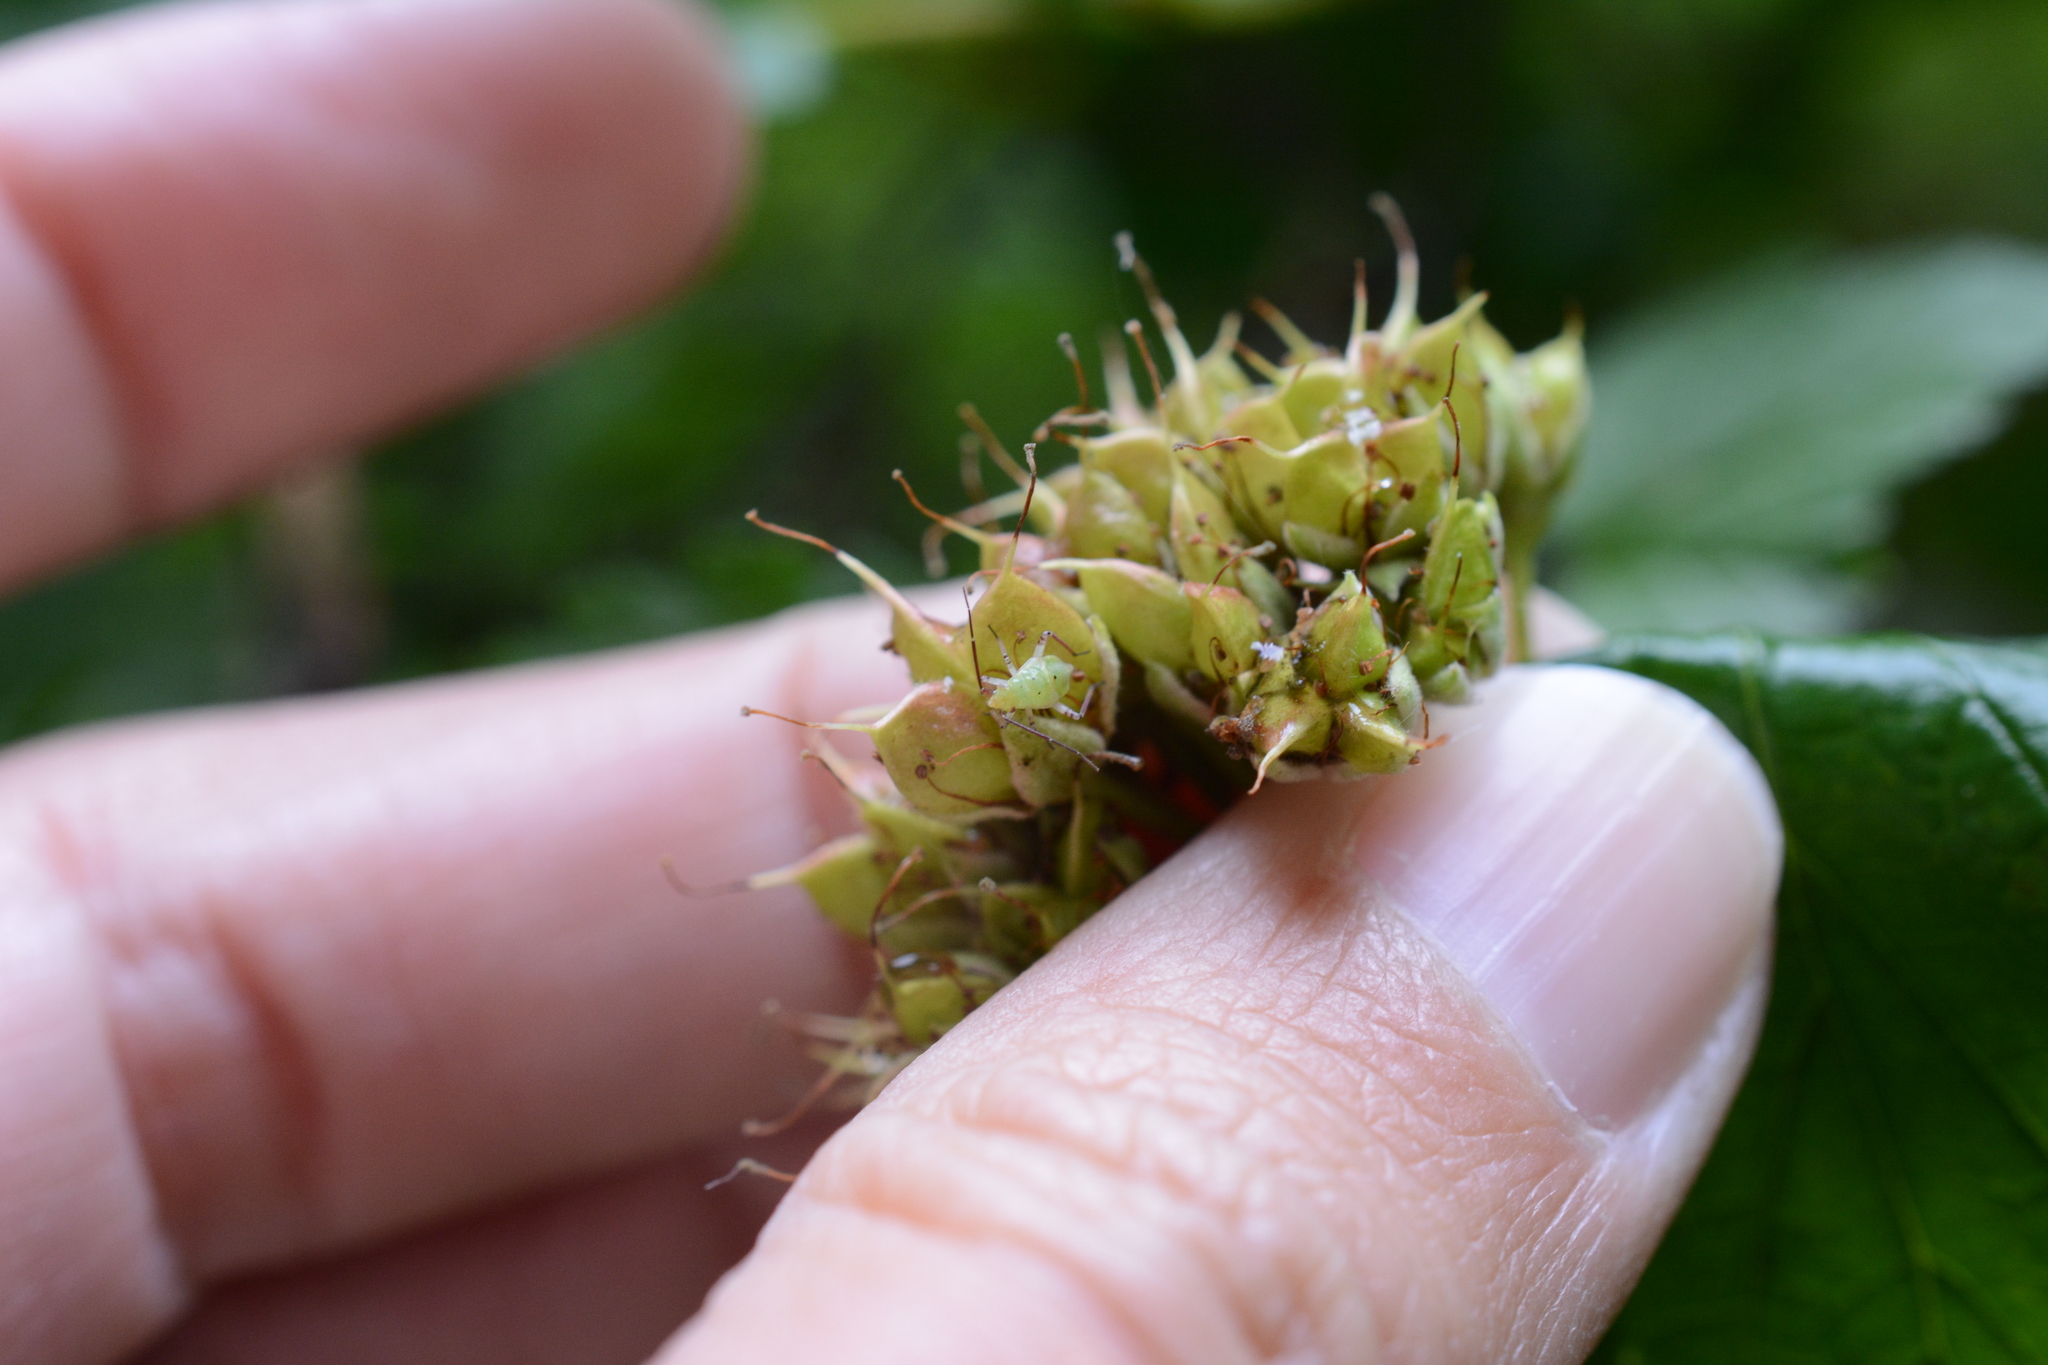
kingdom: Plantae
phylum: Tracheophyta
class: Magnoliopsida
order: Rosales
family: Rosaceae
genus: Physocarpus
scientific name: Physocarpus capitatus
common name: Pacific ninebark
